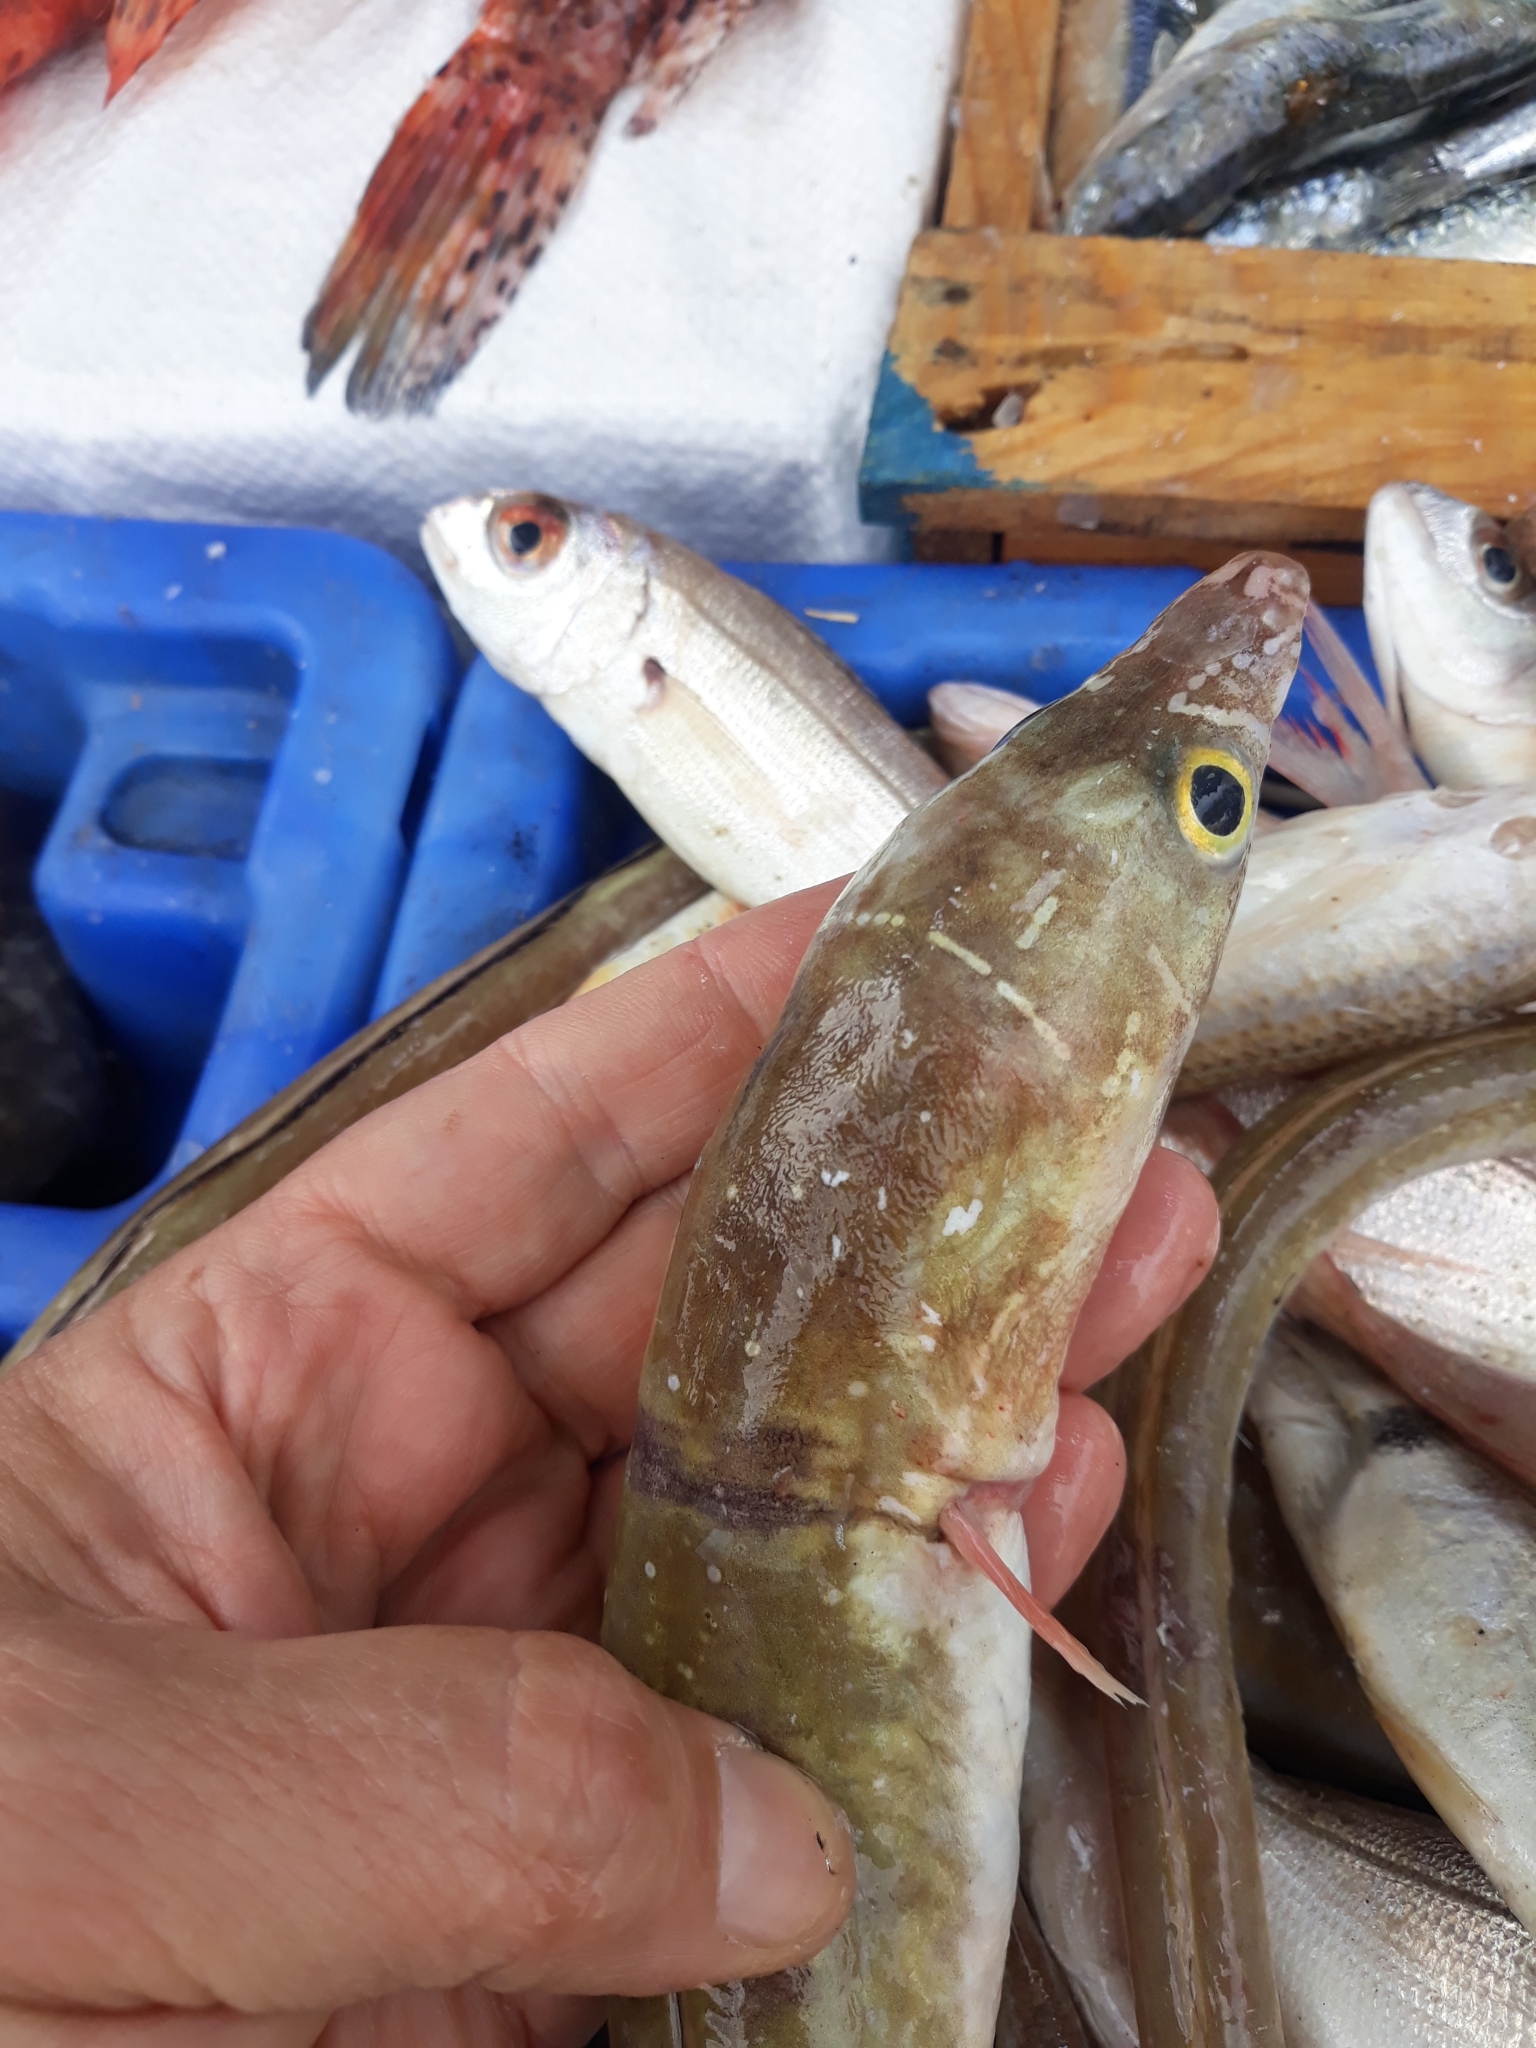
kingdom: Animalia
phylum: Chordata
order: Anguilliformes
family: Ophichthidae
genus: Echelus
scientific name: Echelus myrus
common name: Painted eel
